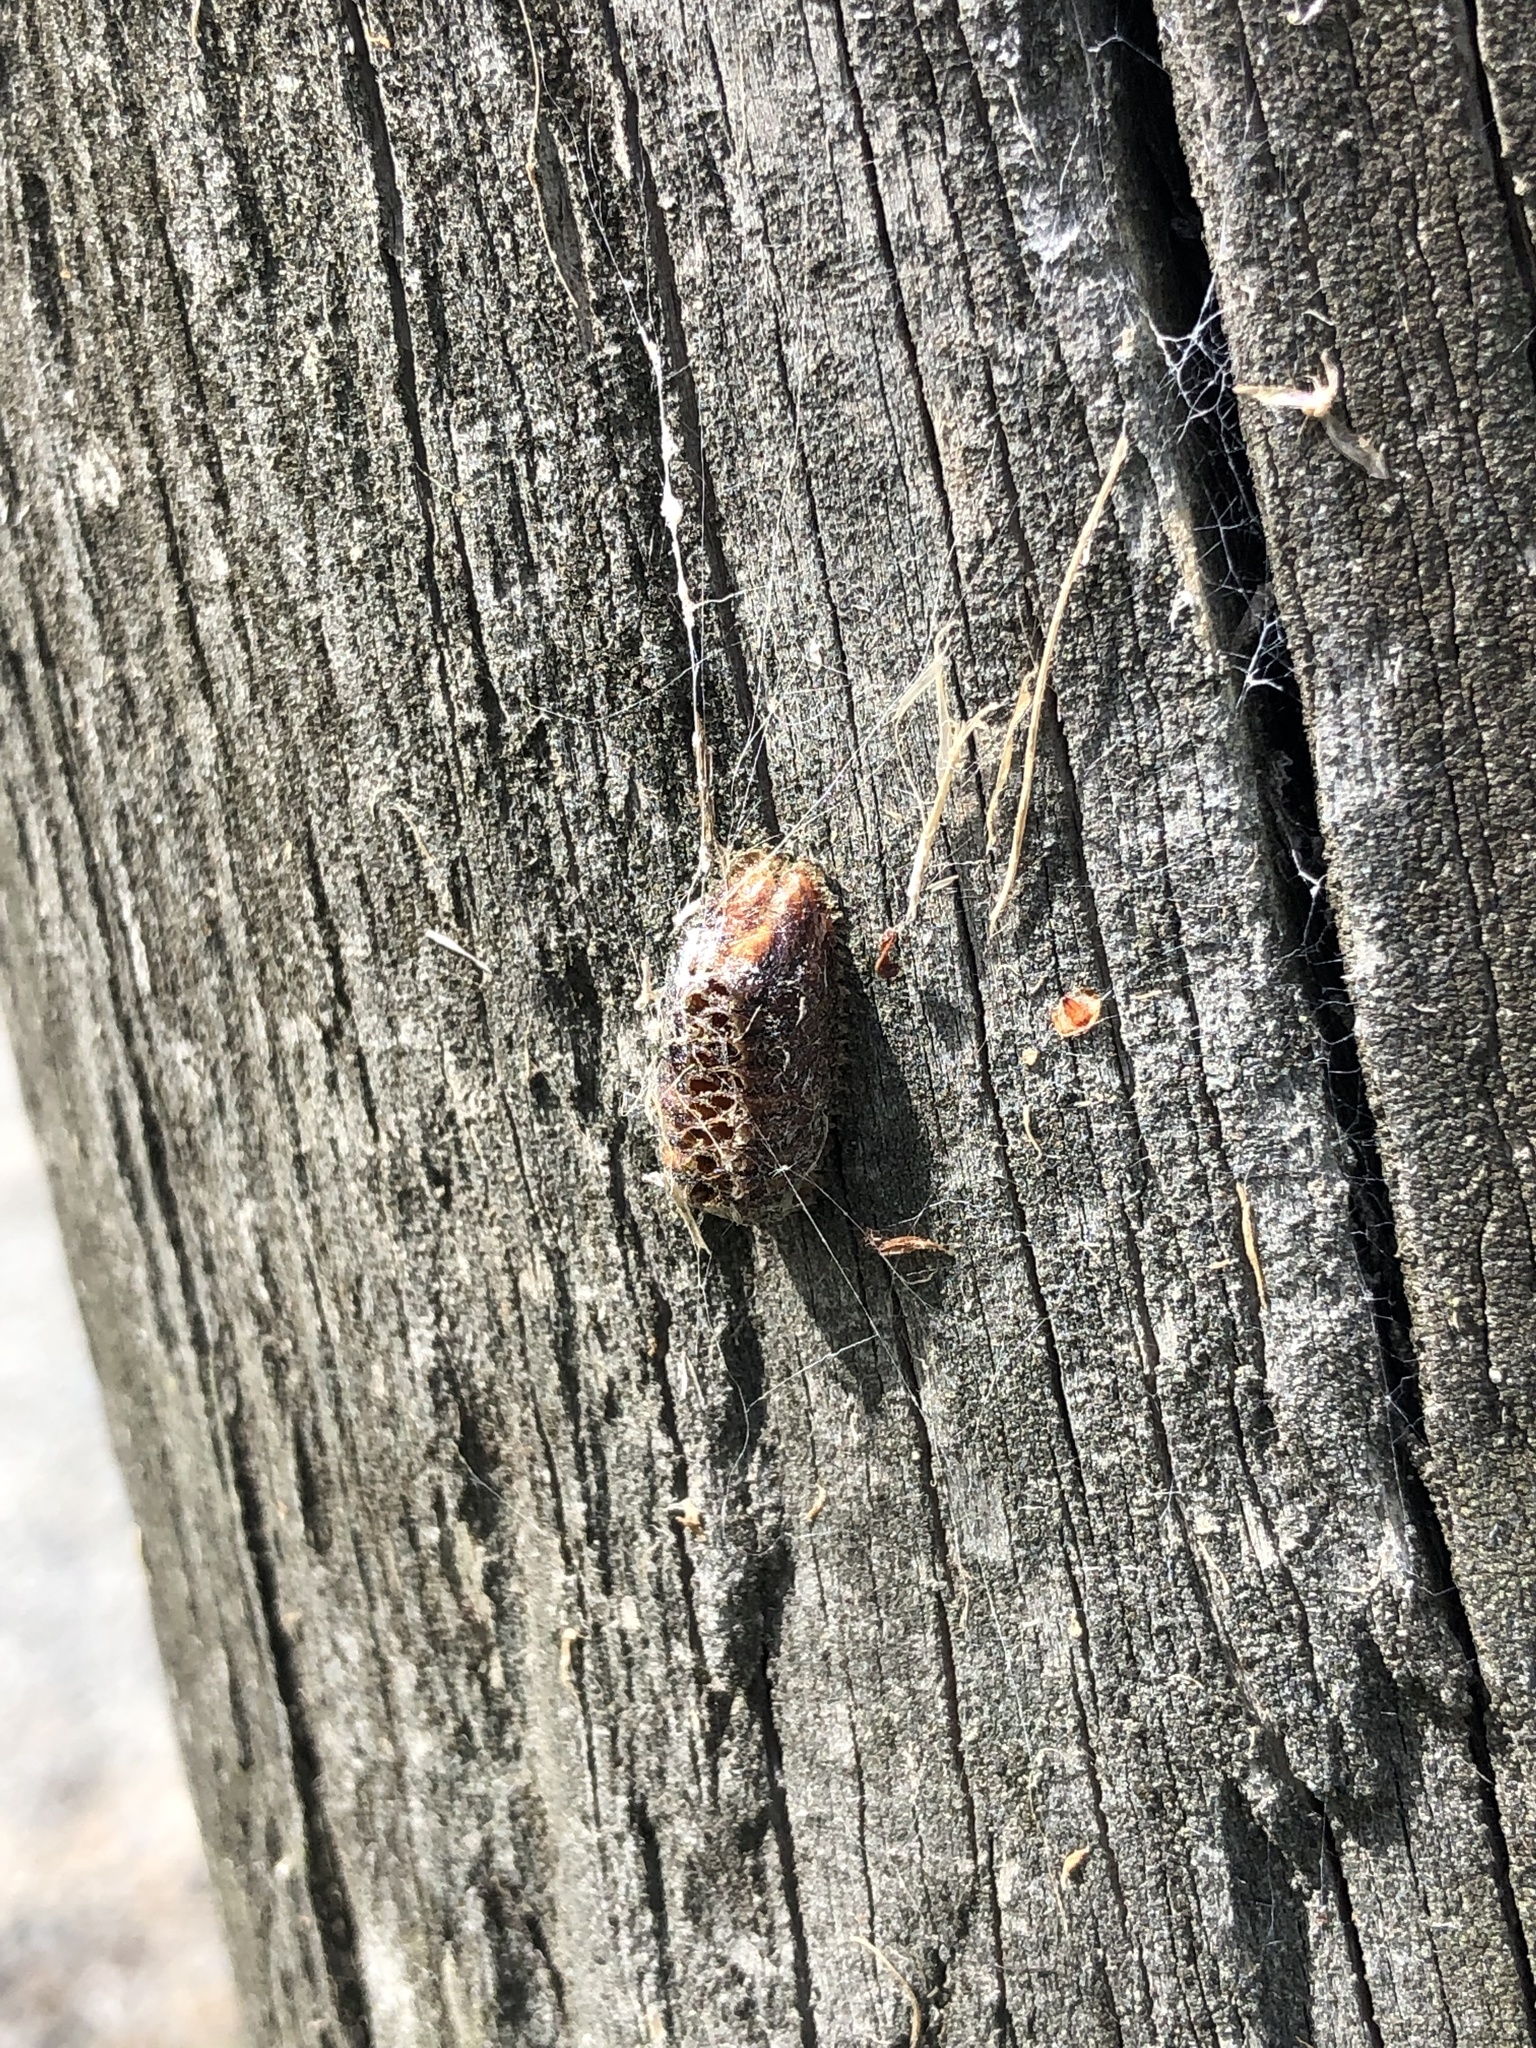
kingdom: Animalia
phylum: Arthropoda
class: Insecta
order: Mantodea
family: Mantidae
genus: Orthodera
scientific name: Orthodera novaezealandiae
